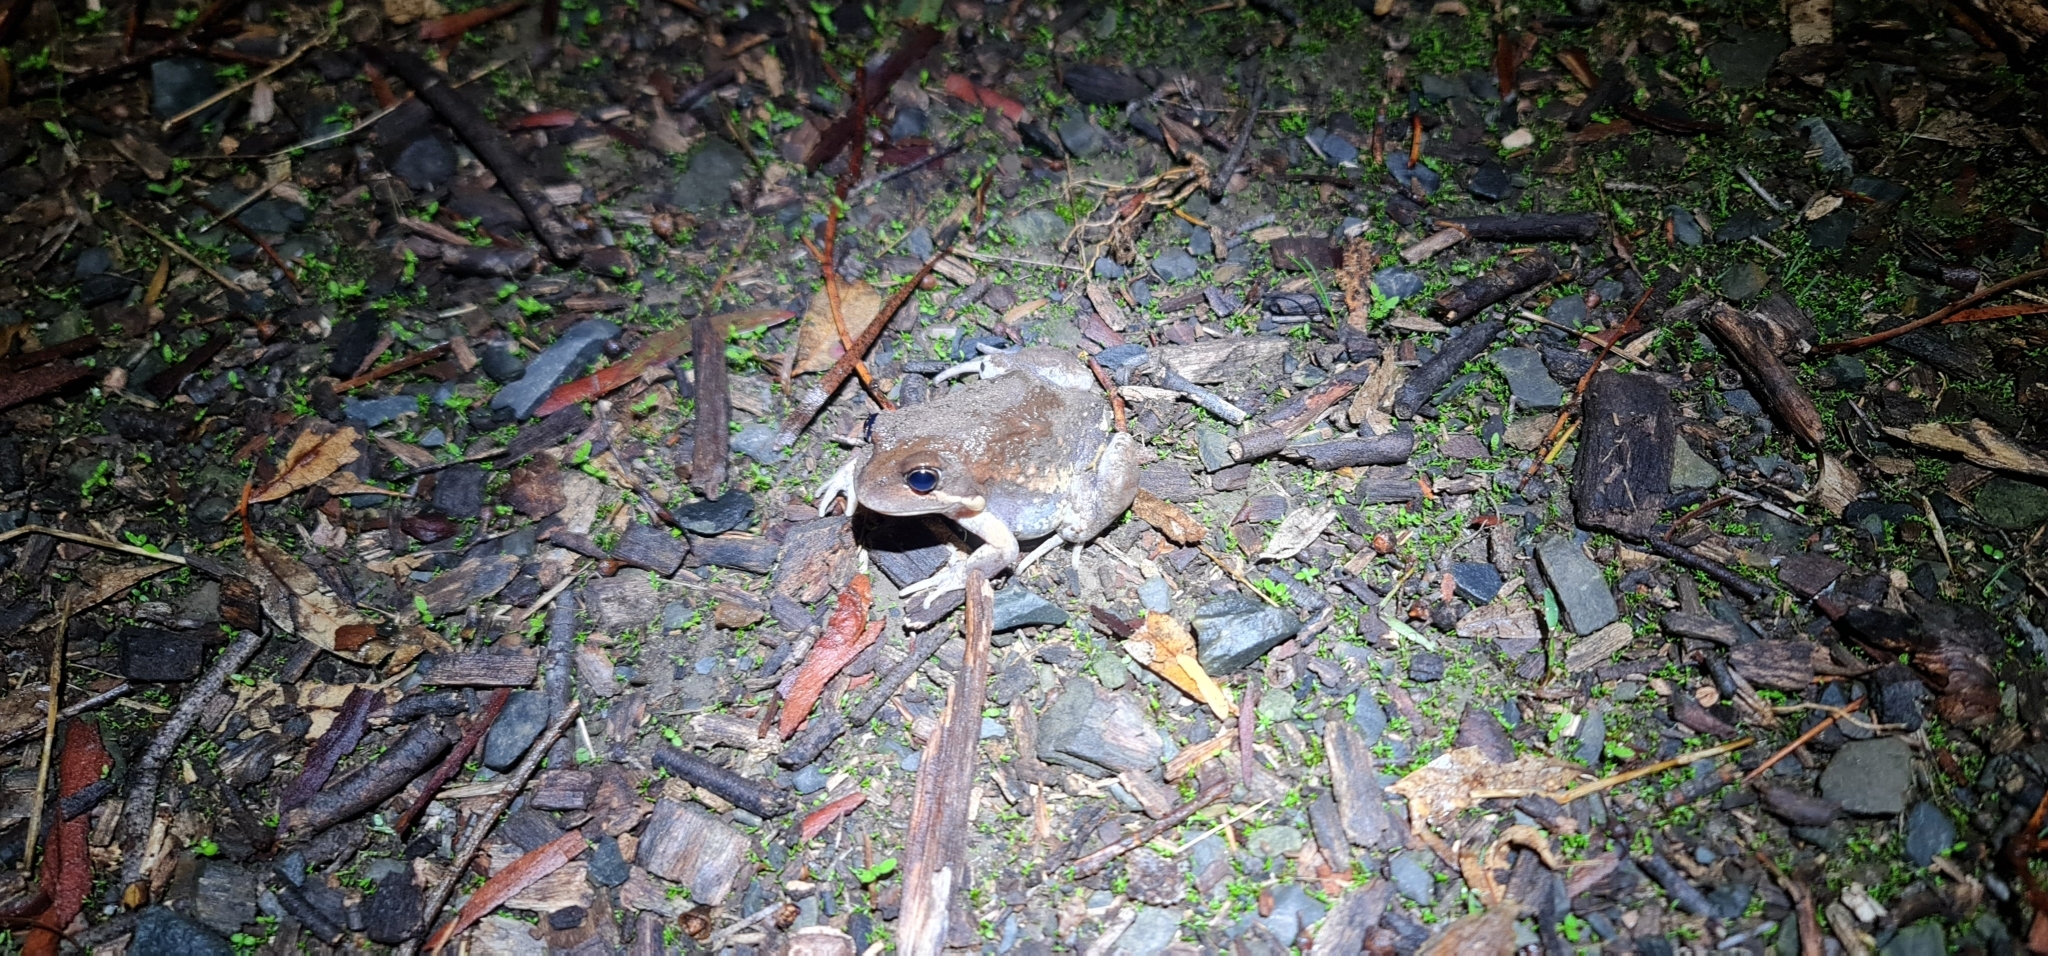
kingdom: Animalia
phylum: Chordata
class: Amphibia
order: Anura
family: Limnodynastidae
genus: Limnodynastes
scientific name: Limnodynastes dumerilii
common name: Banjo frog
